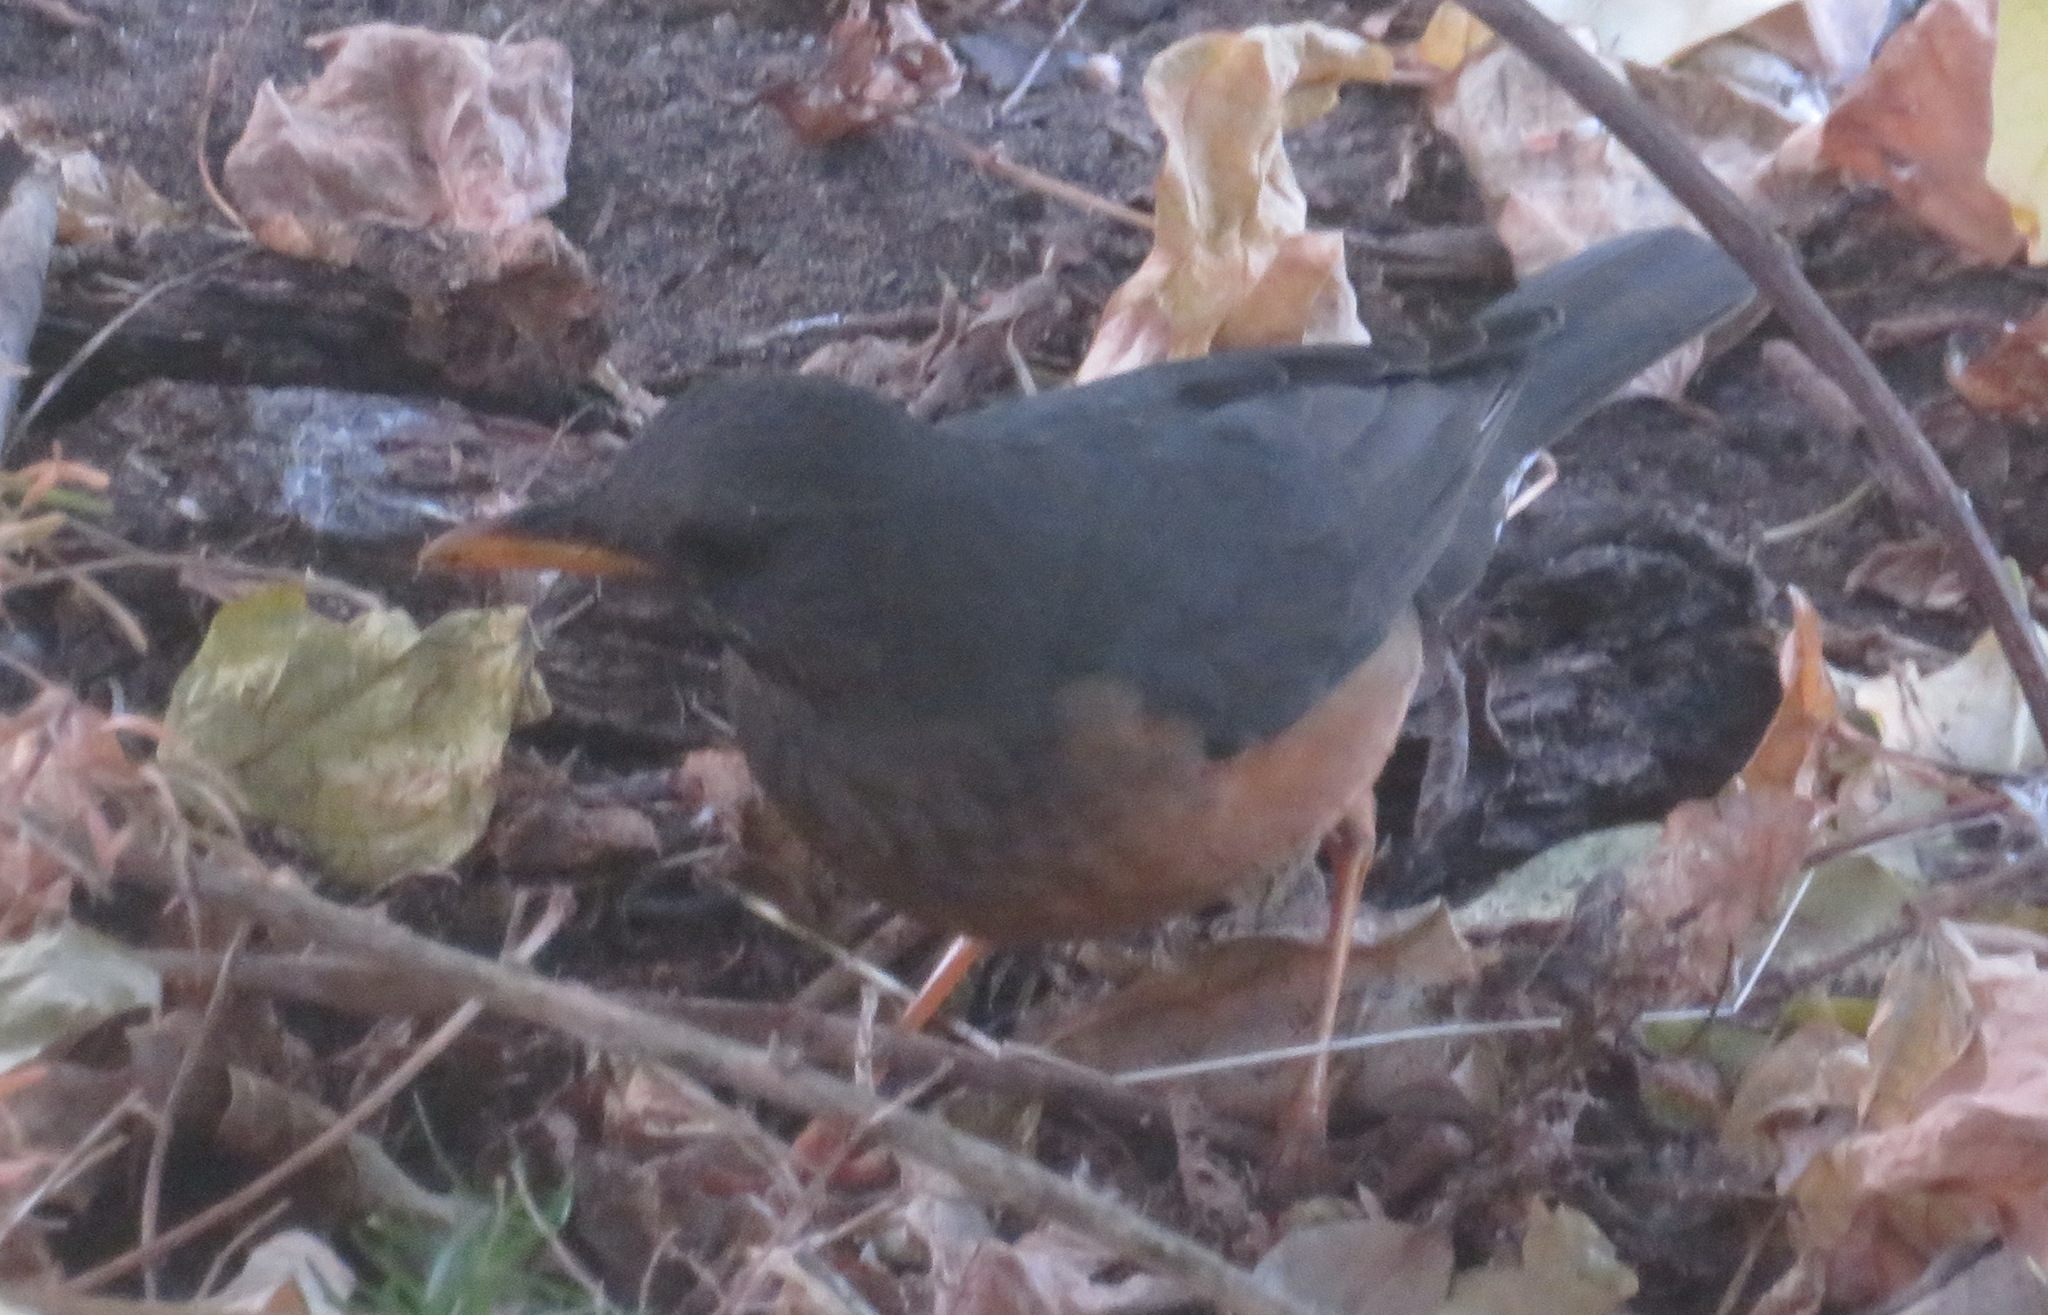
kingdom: Animalia
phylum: Chordata
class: Aves
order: Passeriformes
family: Turdidae
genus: Turdus
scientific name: Turdus olivaceus
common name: Olive thrush
